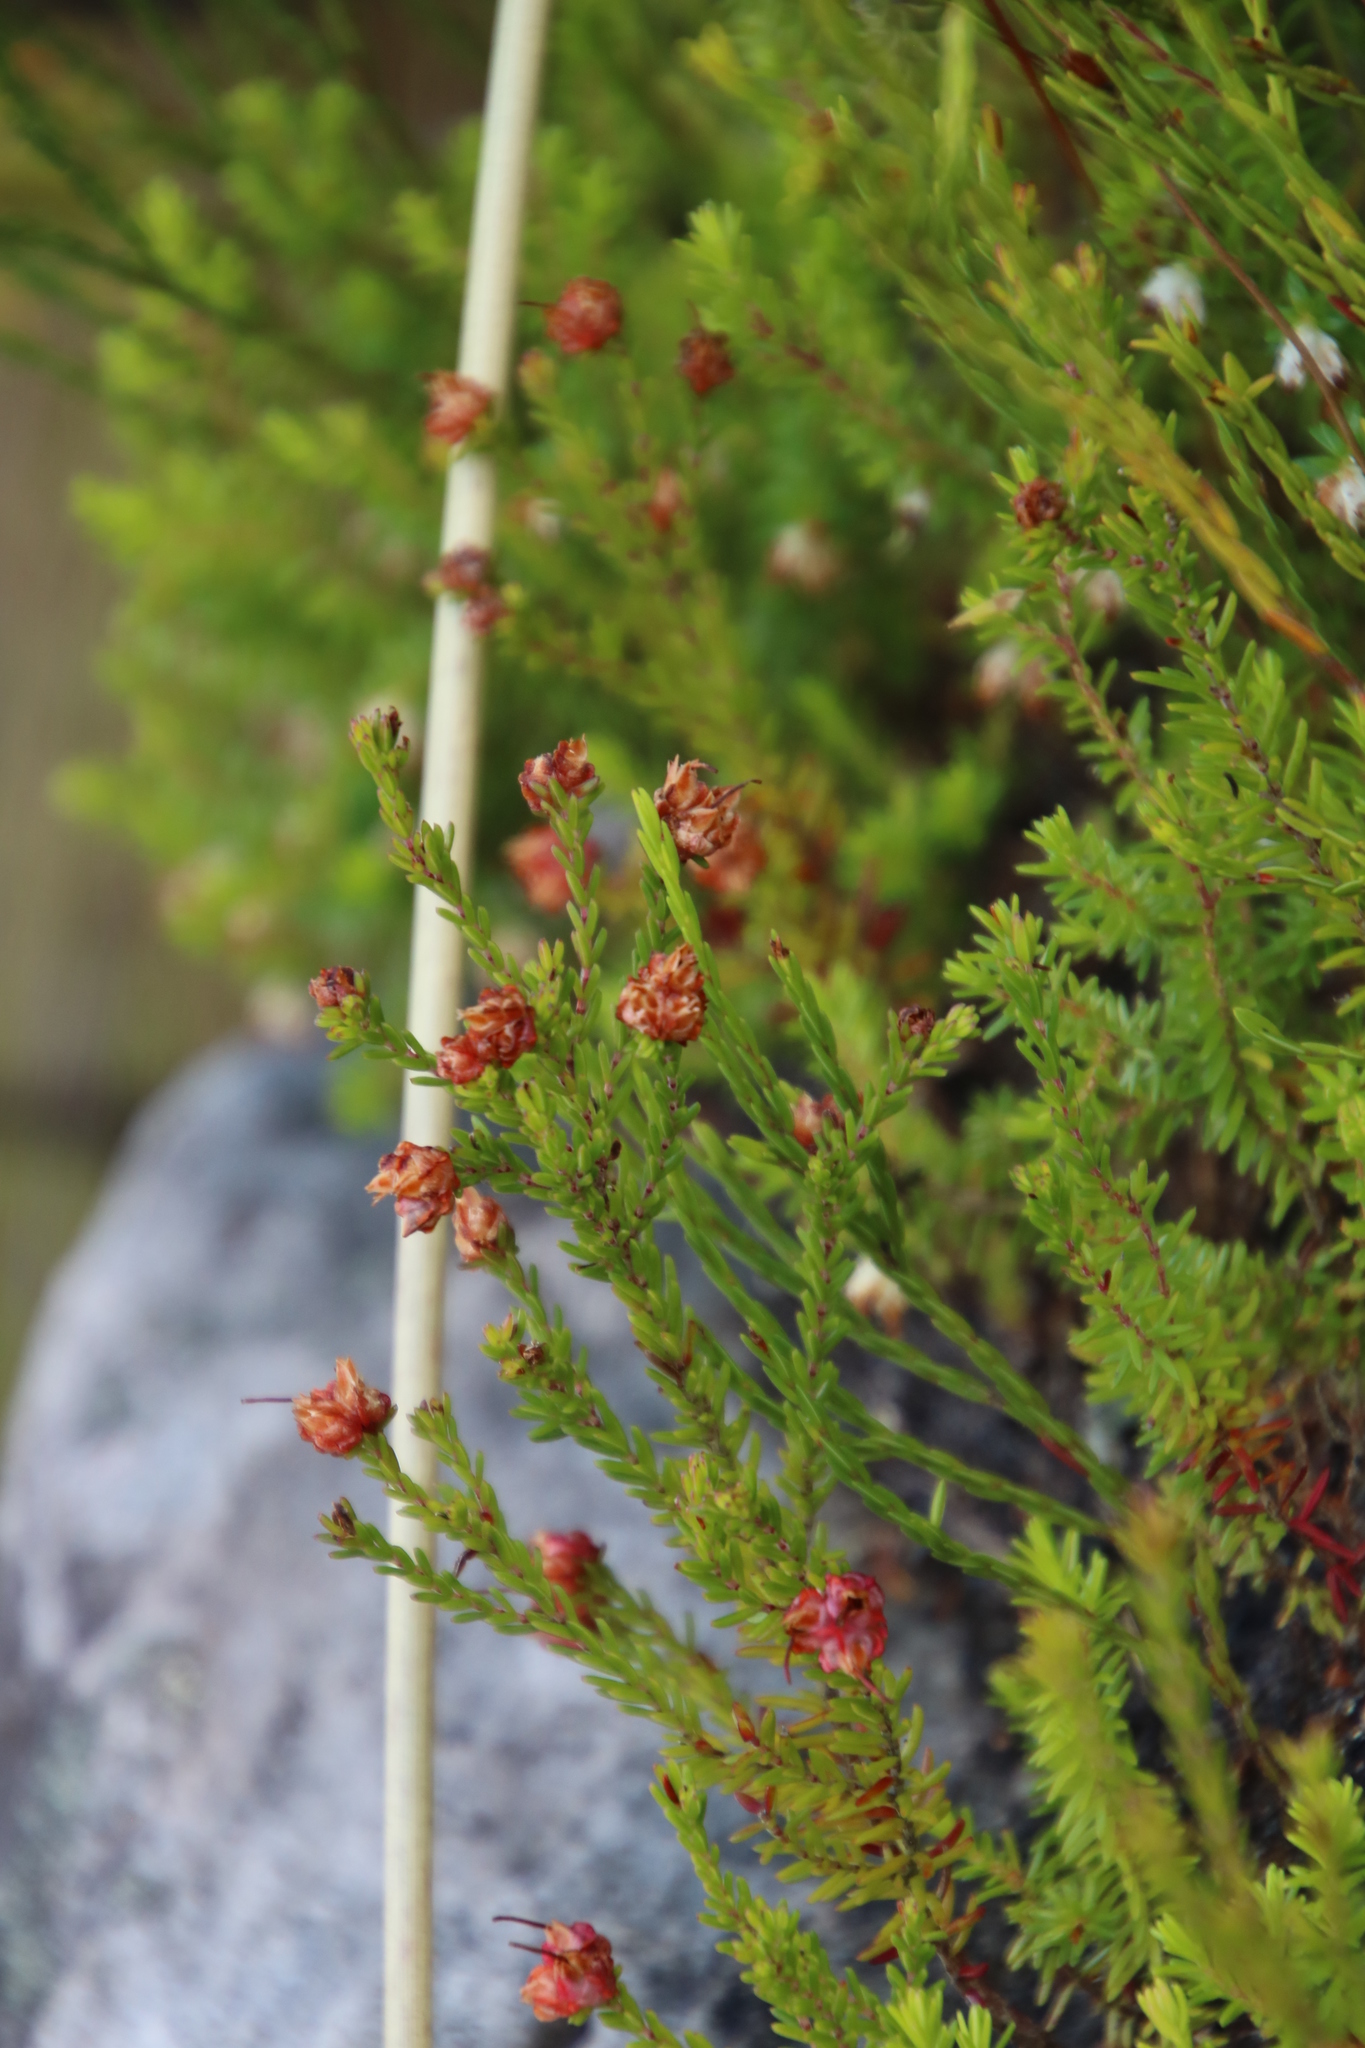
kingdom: Plantae
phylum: Tracheophyta
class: Magnoliopsida
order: Ericales
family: Ericaceae
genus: Erica
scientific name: Erica genistifolia
